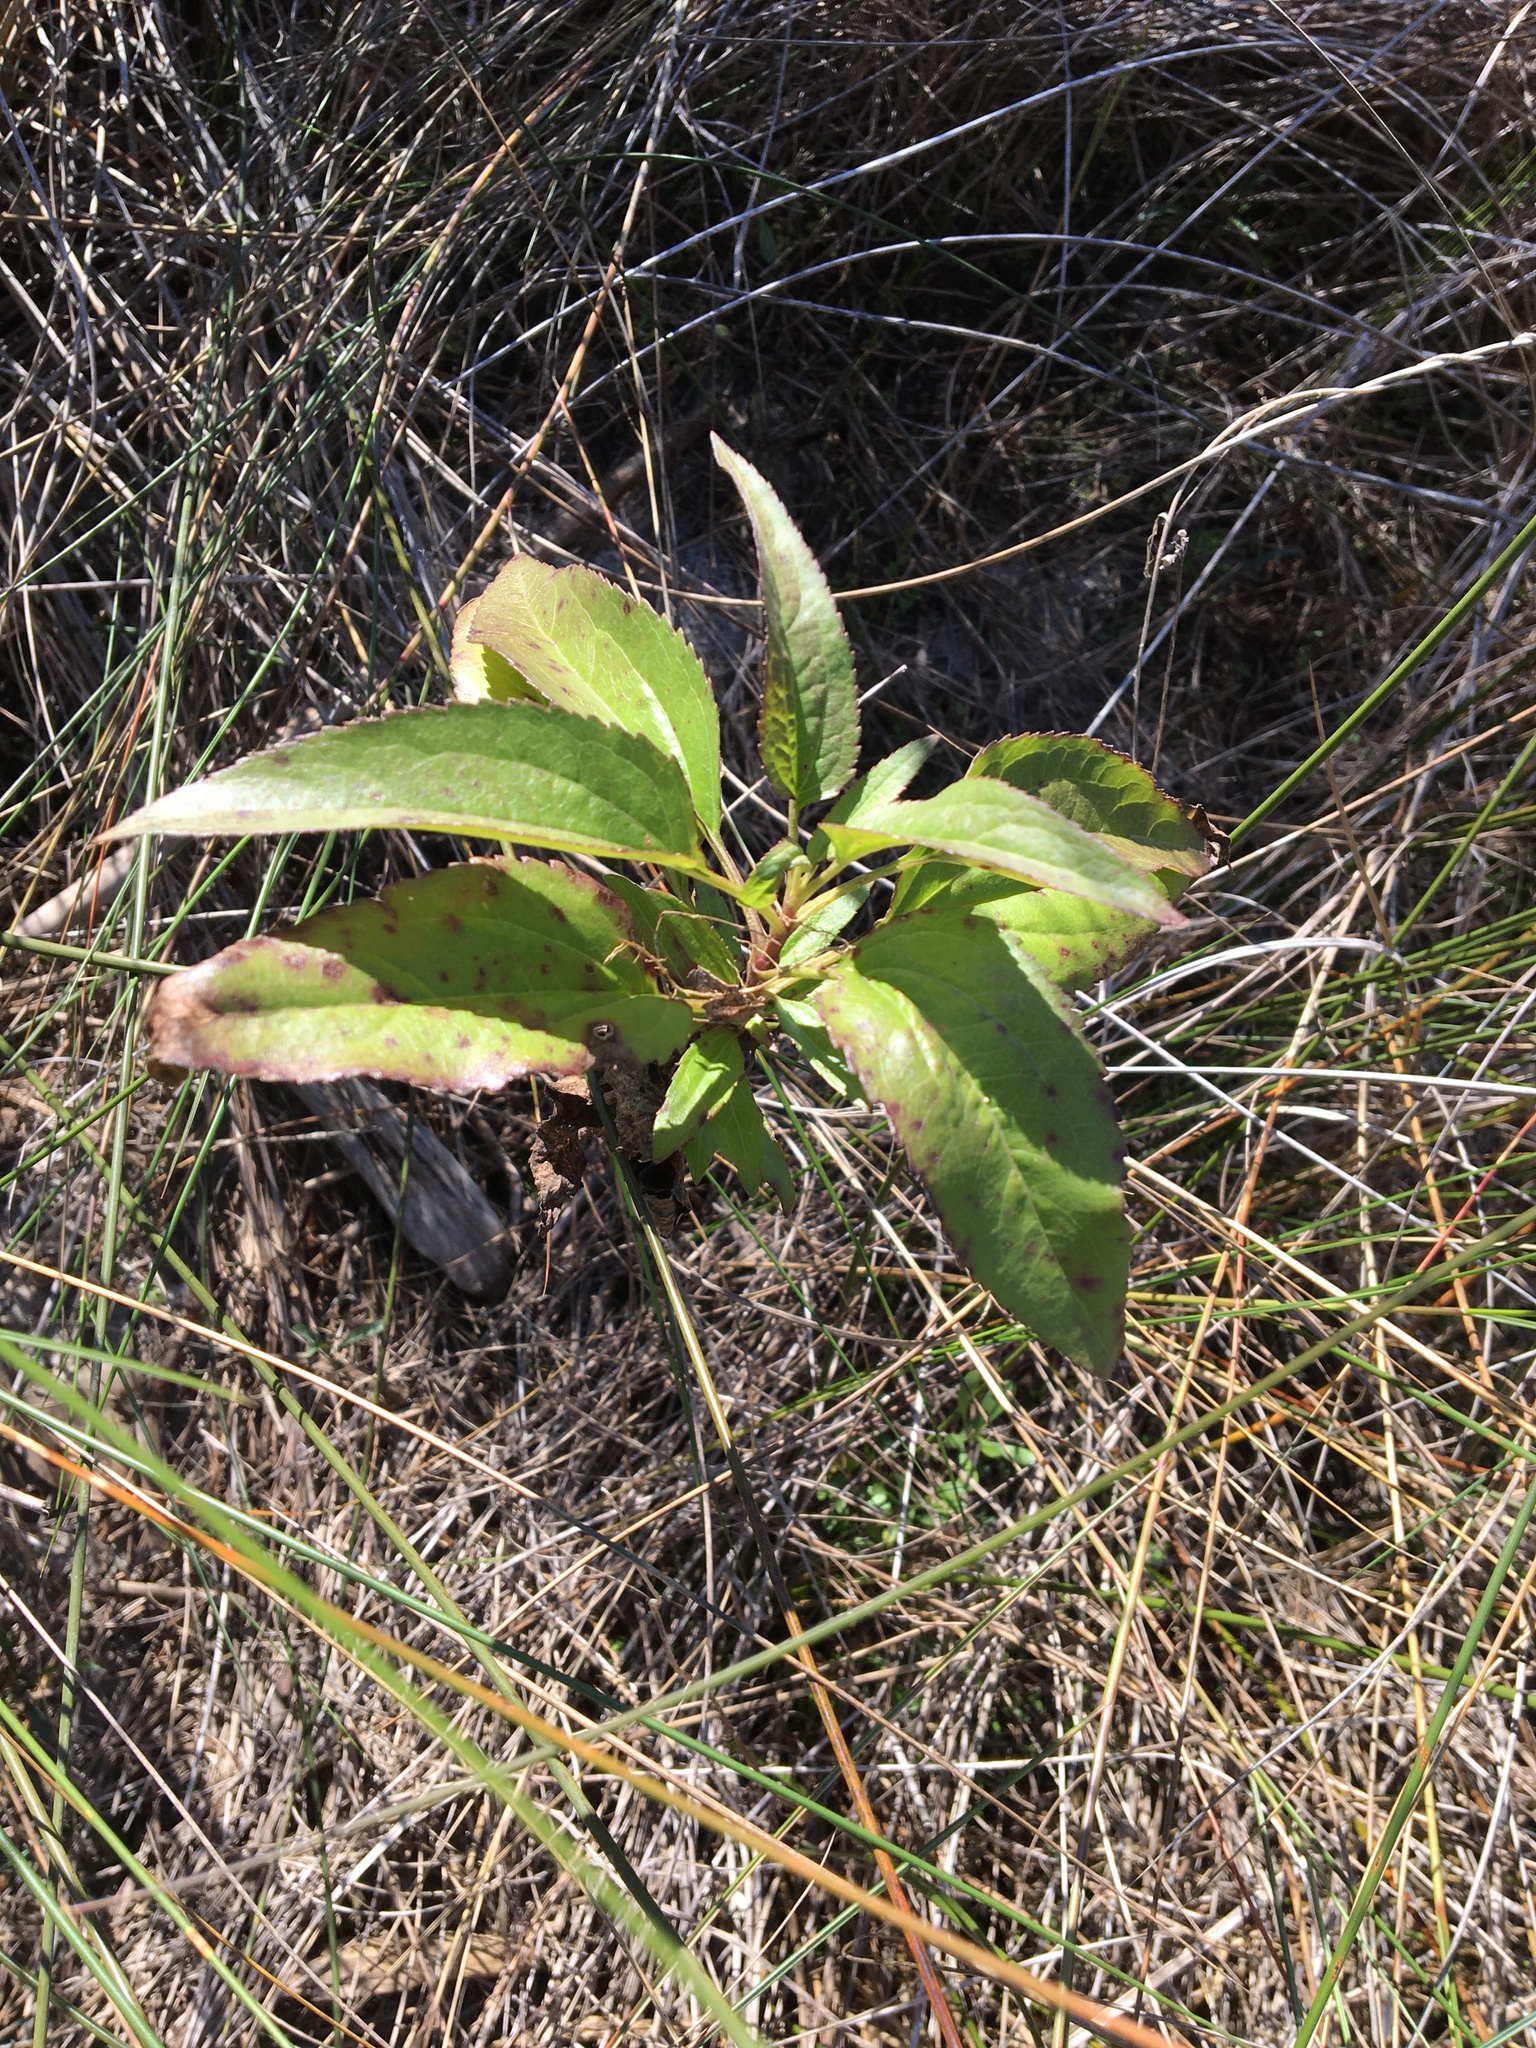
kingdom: Plantae
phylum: Tracheophyta
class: Magnoliopsida
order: Asterales
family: Asteraceae
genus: Eupatorium
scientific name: Eupatorium serotinum
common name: Late boneset
